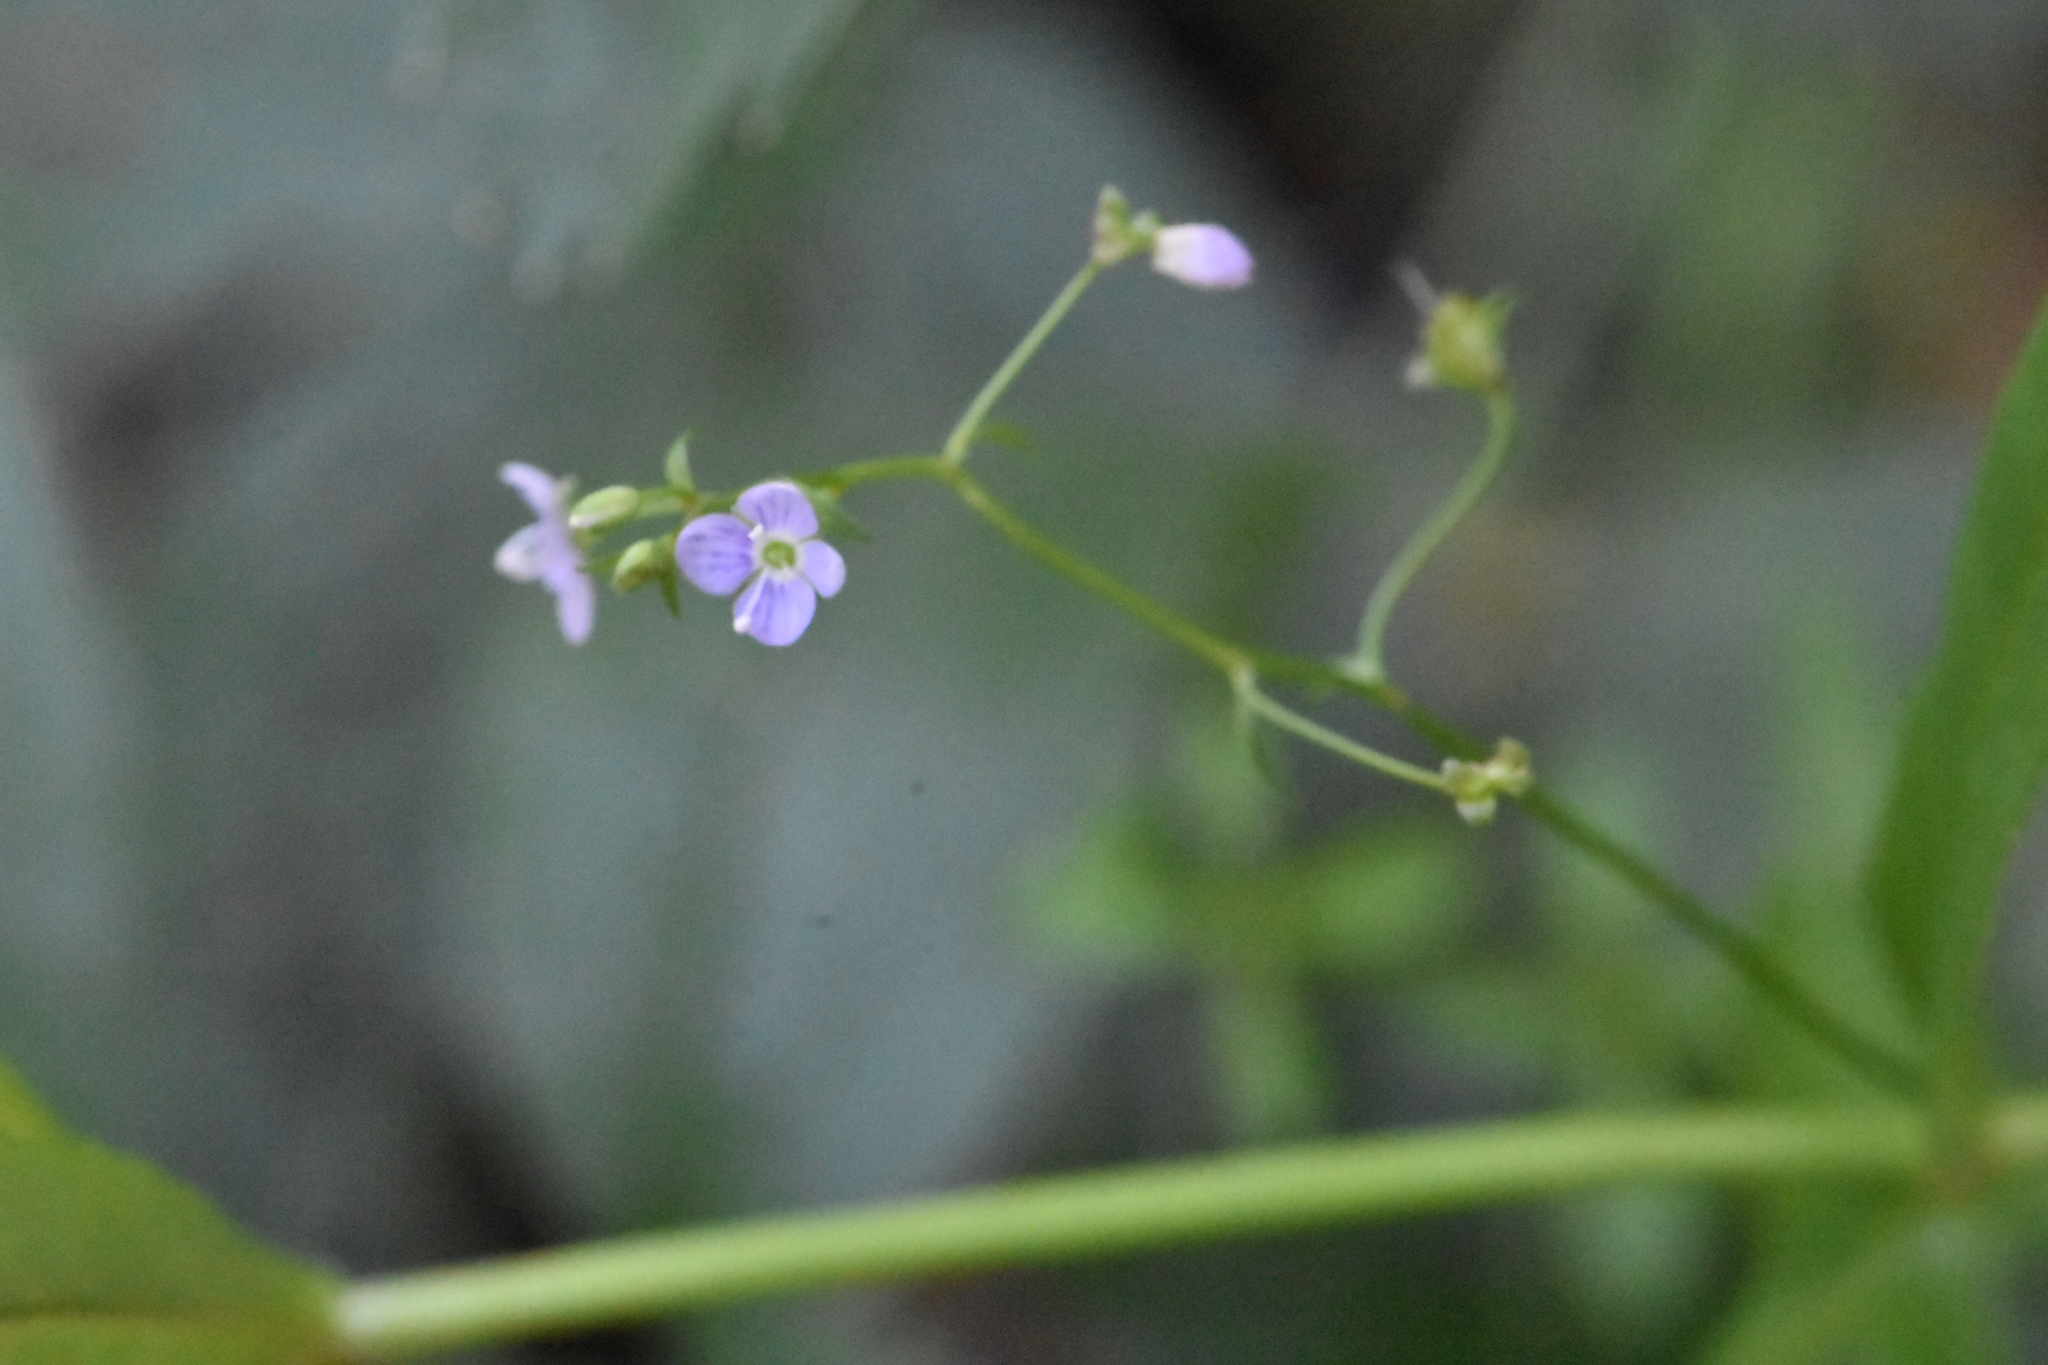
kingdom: Plantae
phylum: Tracheophyta
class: Magnoliopsida
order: Lamiales
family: Plantaginaceae
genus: Veronica
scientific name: Veronica scutellata
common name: Marsh speedwell
